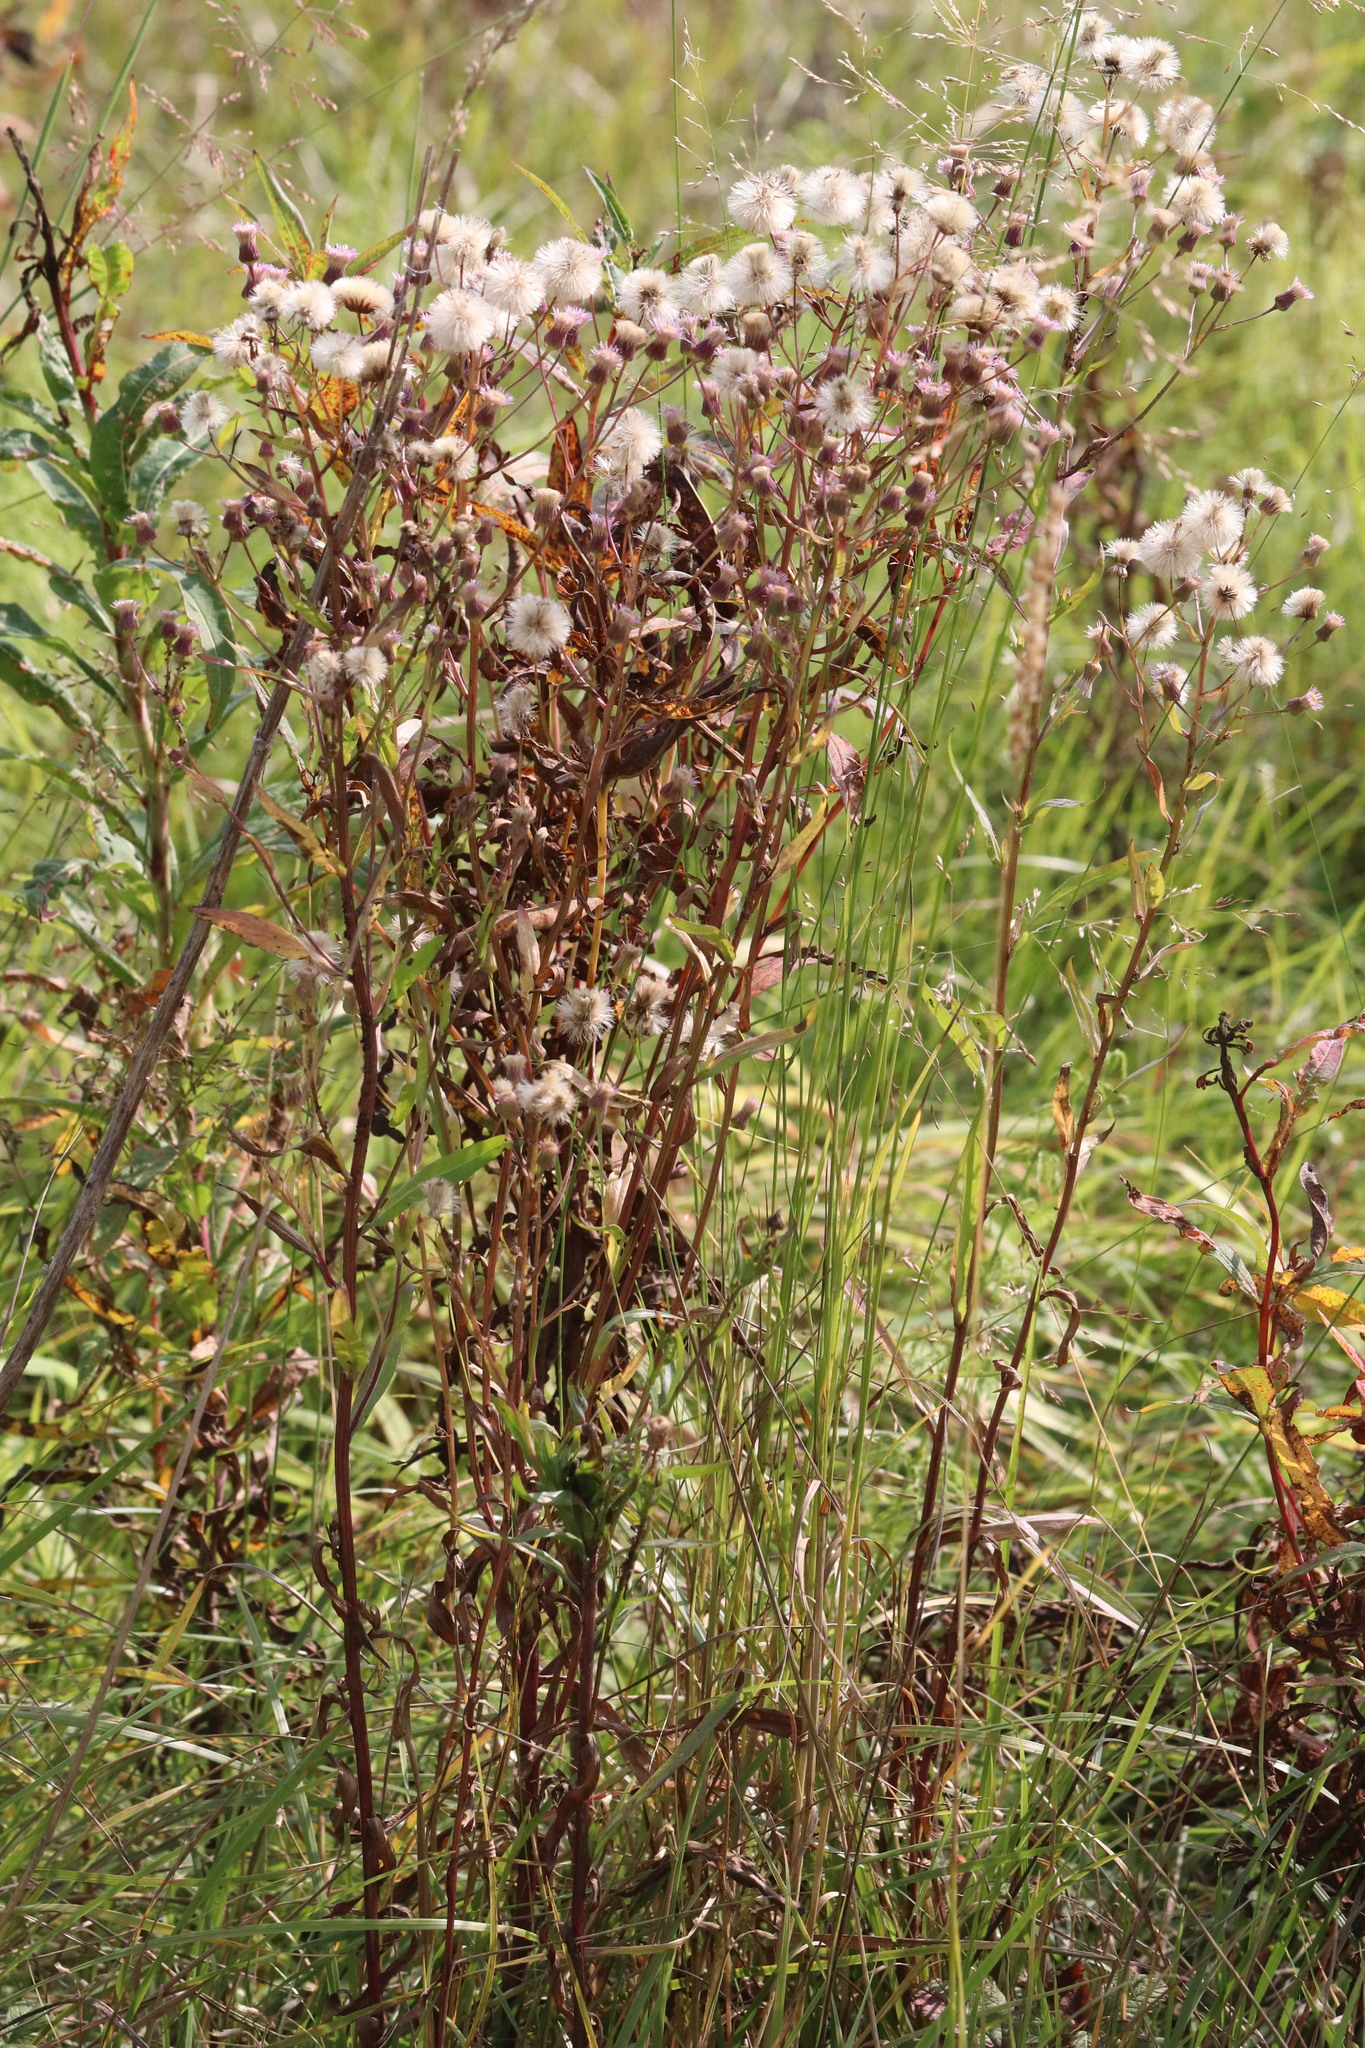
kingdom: Plantae
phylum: Tracheophyta
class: Magnoliopsida
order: Asterales
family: Asteraceae
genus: Erigeron
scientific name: Erigeron acris
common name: Blue fleabane
